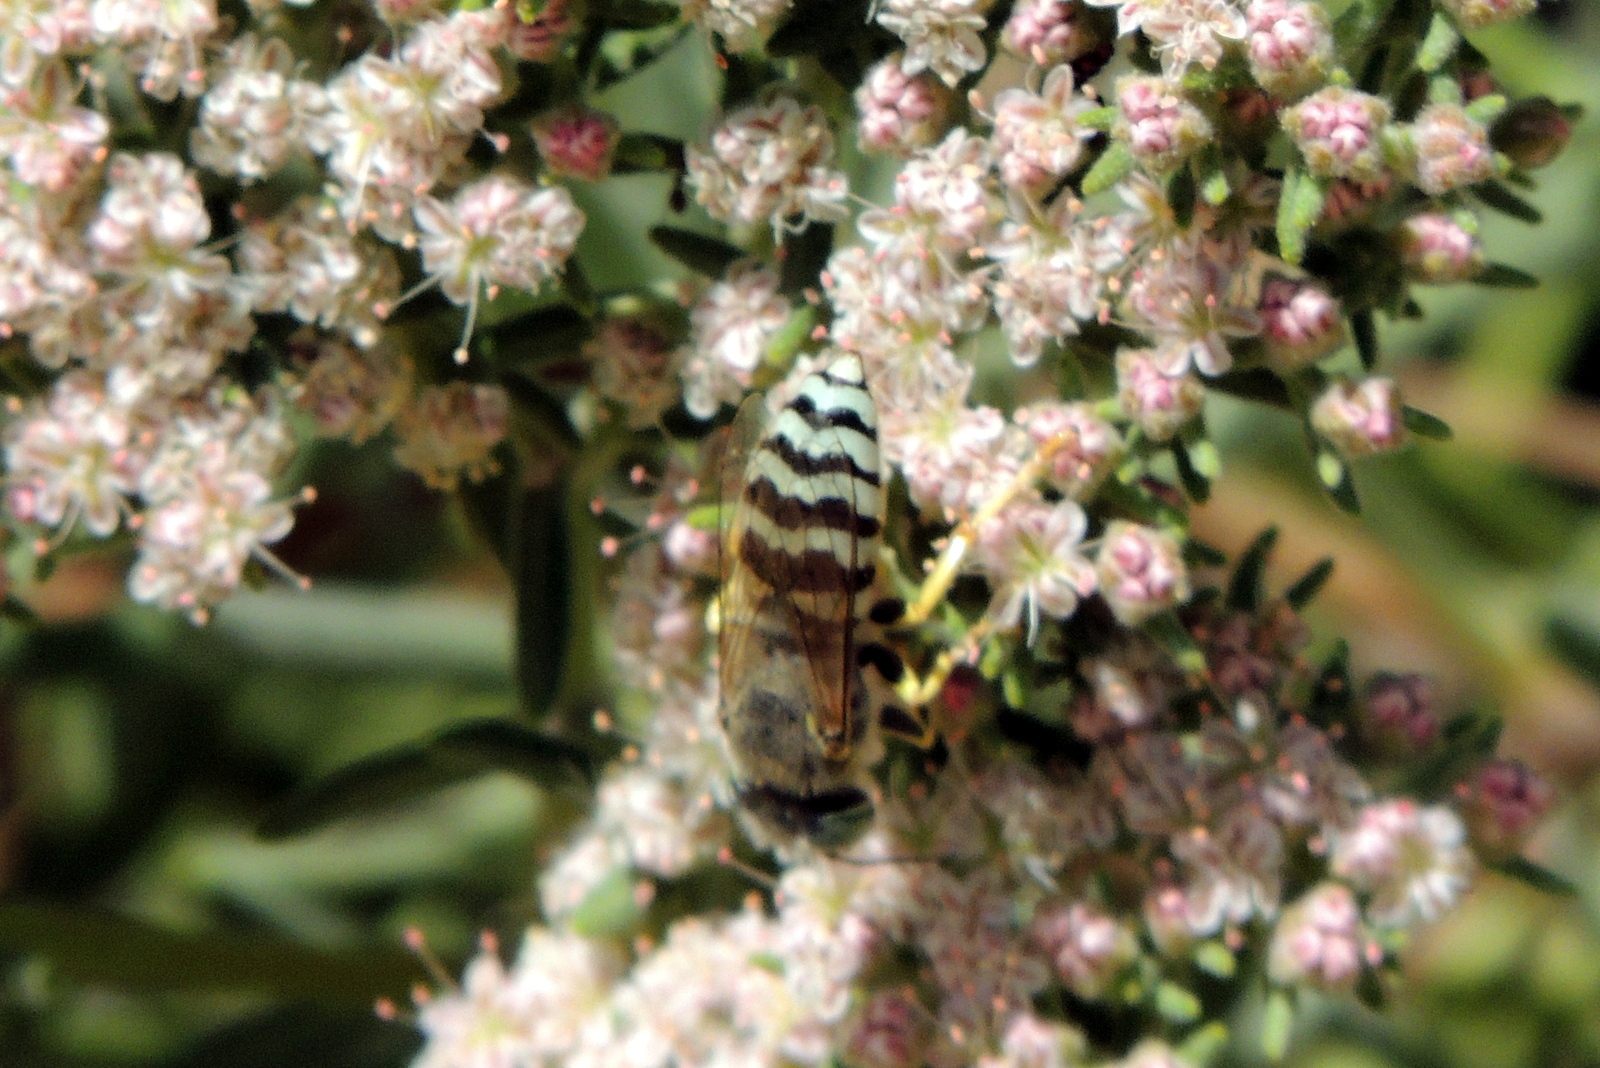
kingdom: Animalia
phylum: Arthropoda
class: Insecta
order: Hymenoptera
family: Crabronidae
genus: Bembix
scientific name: Bembix americana
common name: American sand wasp
